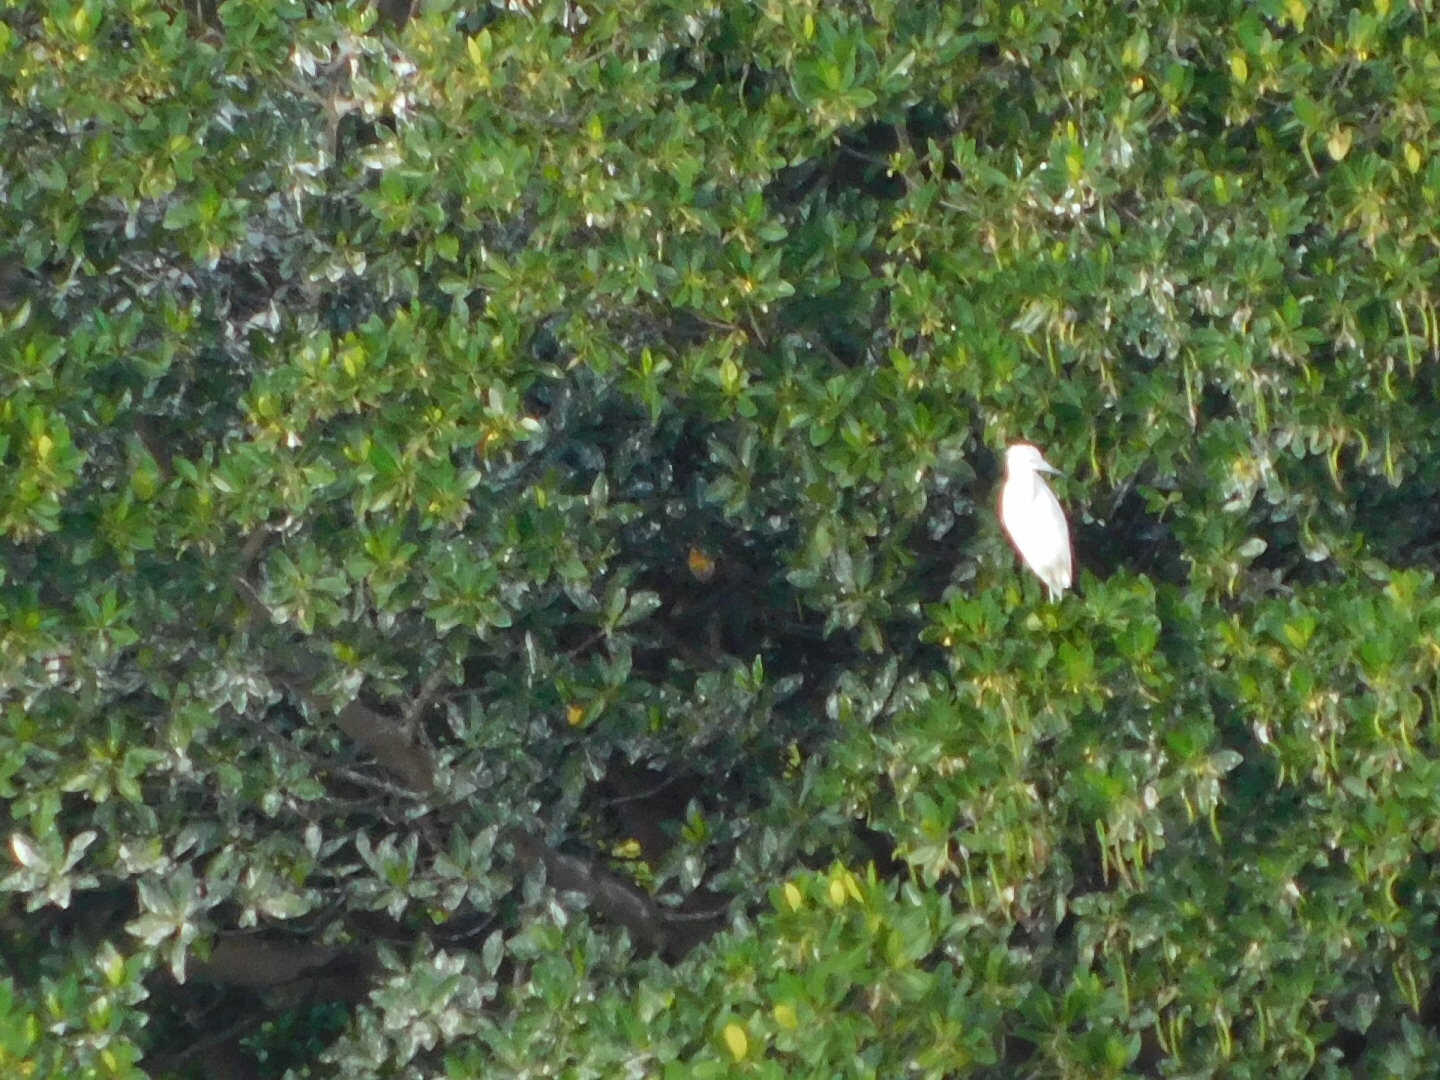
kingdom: Animalia
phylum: Chordata
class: Aves
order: Pelecaniformes
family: Ardeidae
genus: Egretta
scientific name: Egretta caerulea
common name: Little blue heron
